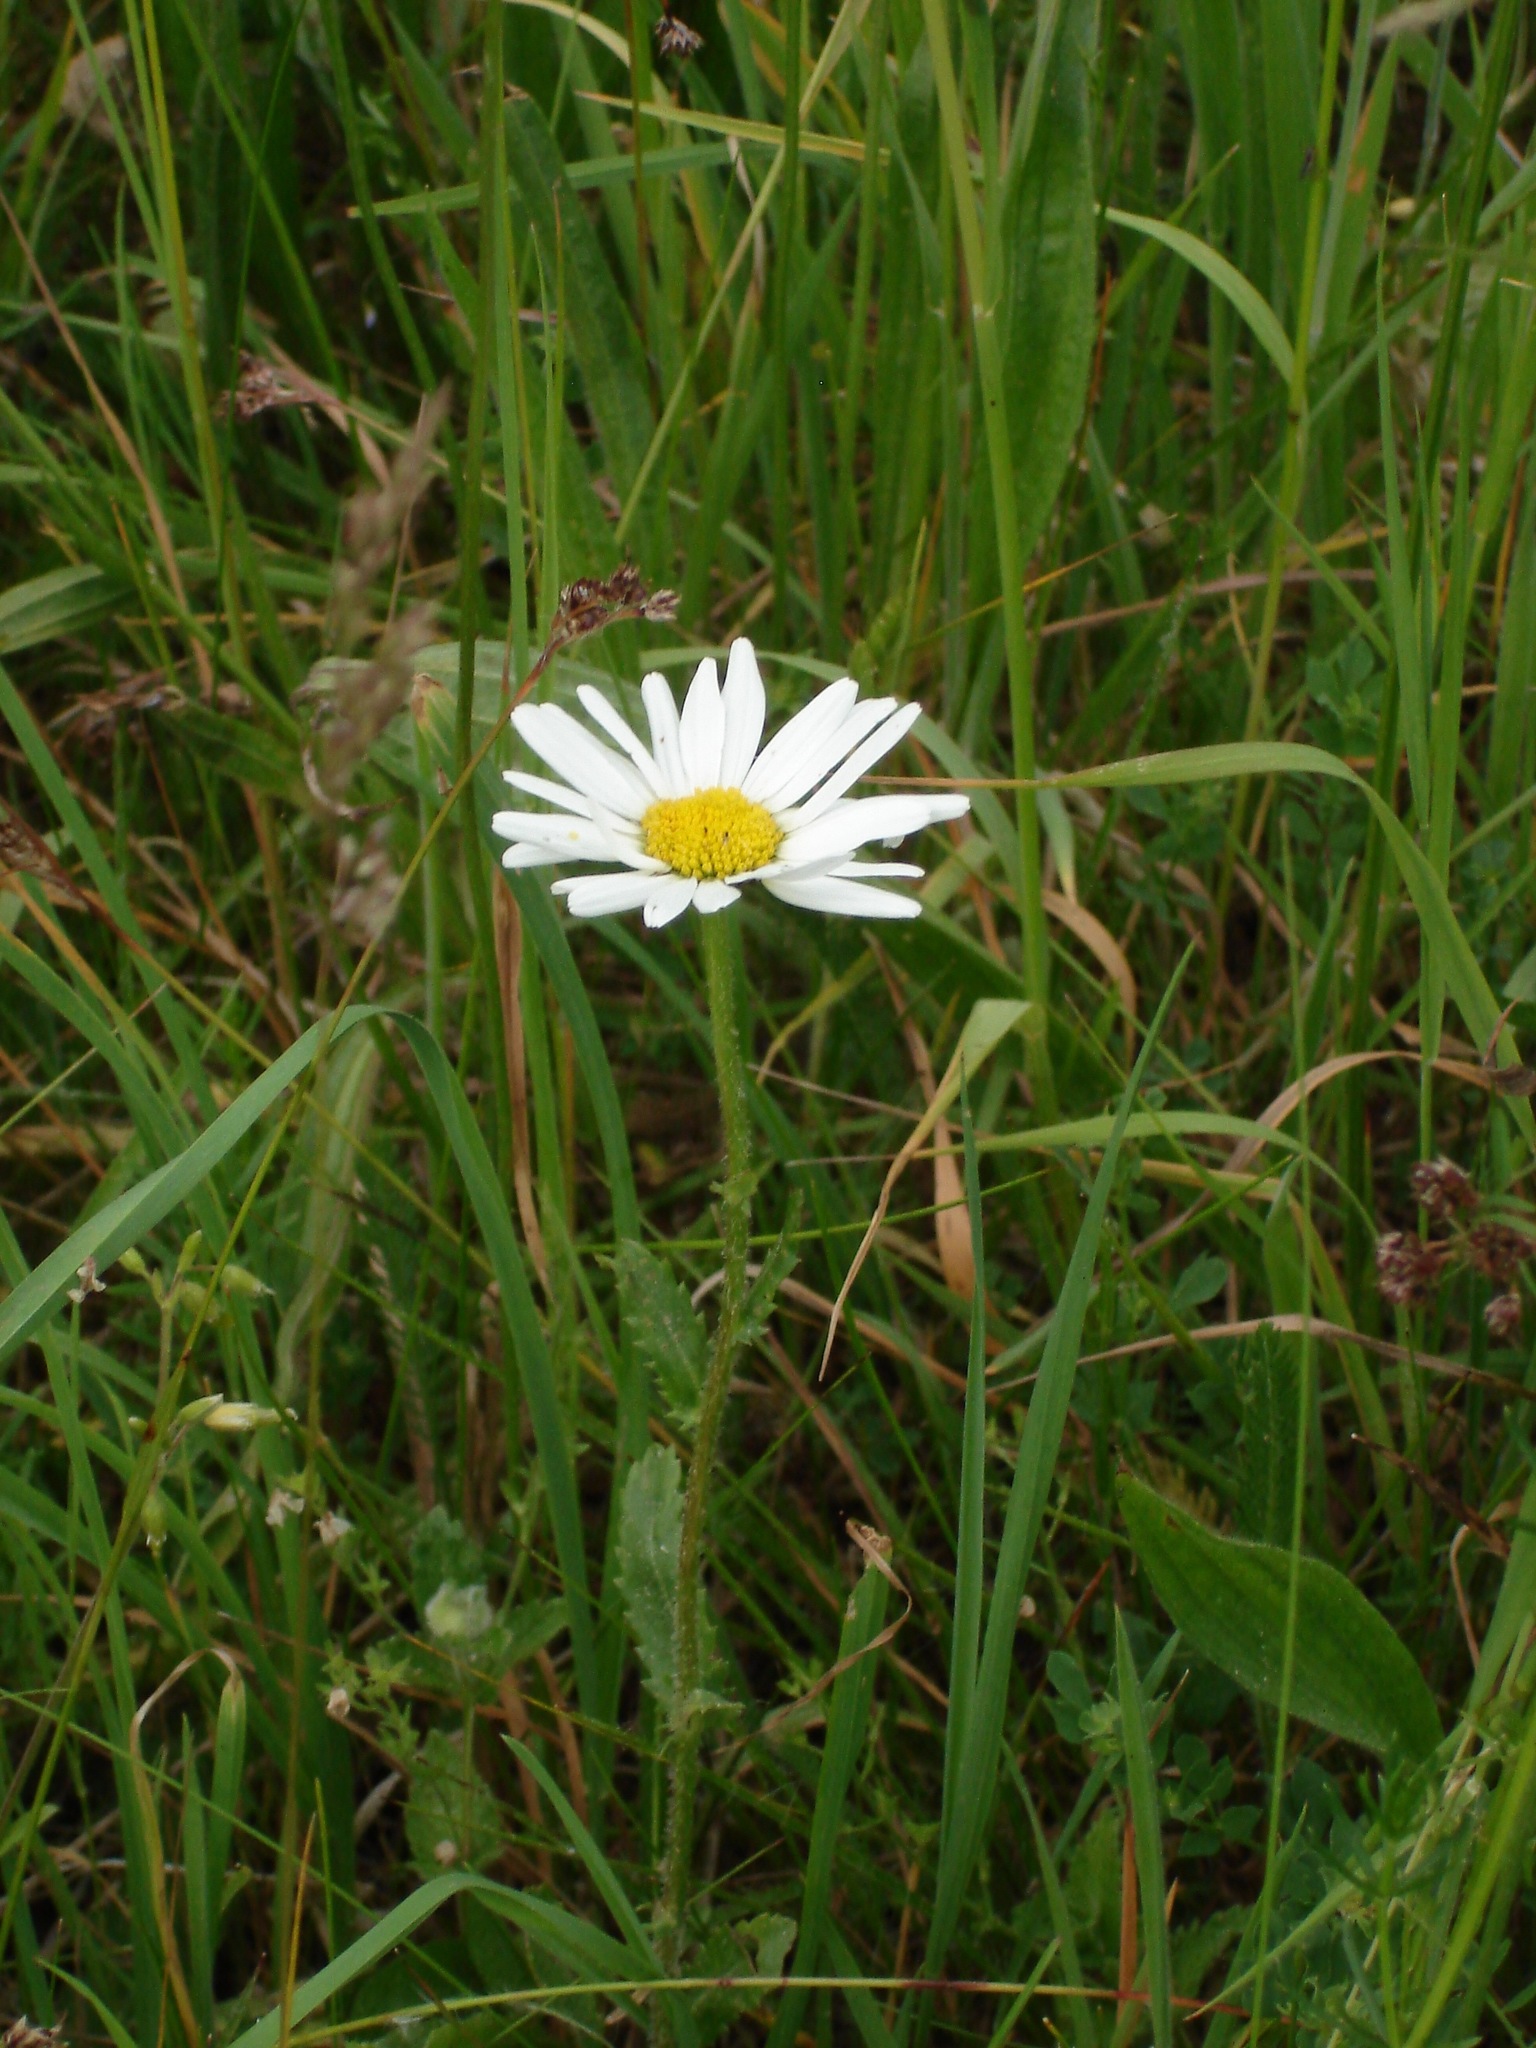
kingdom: Plantae
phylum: Tracheophyta
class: Magnoliopsida
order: Asterales
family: Asteraceae
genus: Leucanthemum
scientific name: Leucanthemum vulgare
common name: Oxeye daisy
